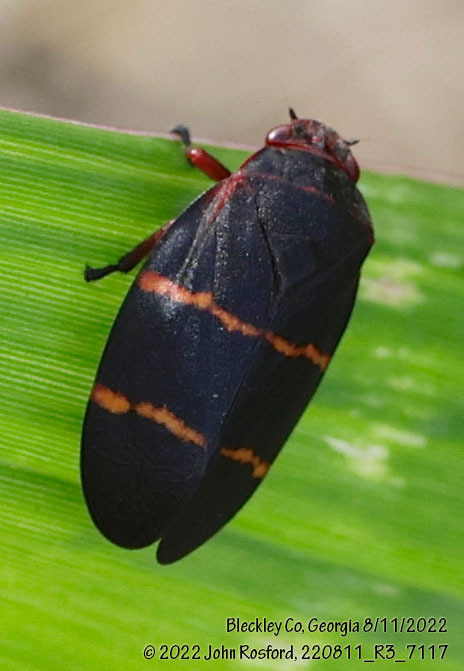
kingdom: Animalia
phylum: Arthropoda
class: Insecta
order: Hemiptera
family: Cercopidae
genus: Prosapia
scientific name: Prosapia bicincta
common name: Twolined spittlebug
